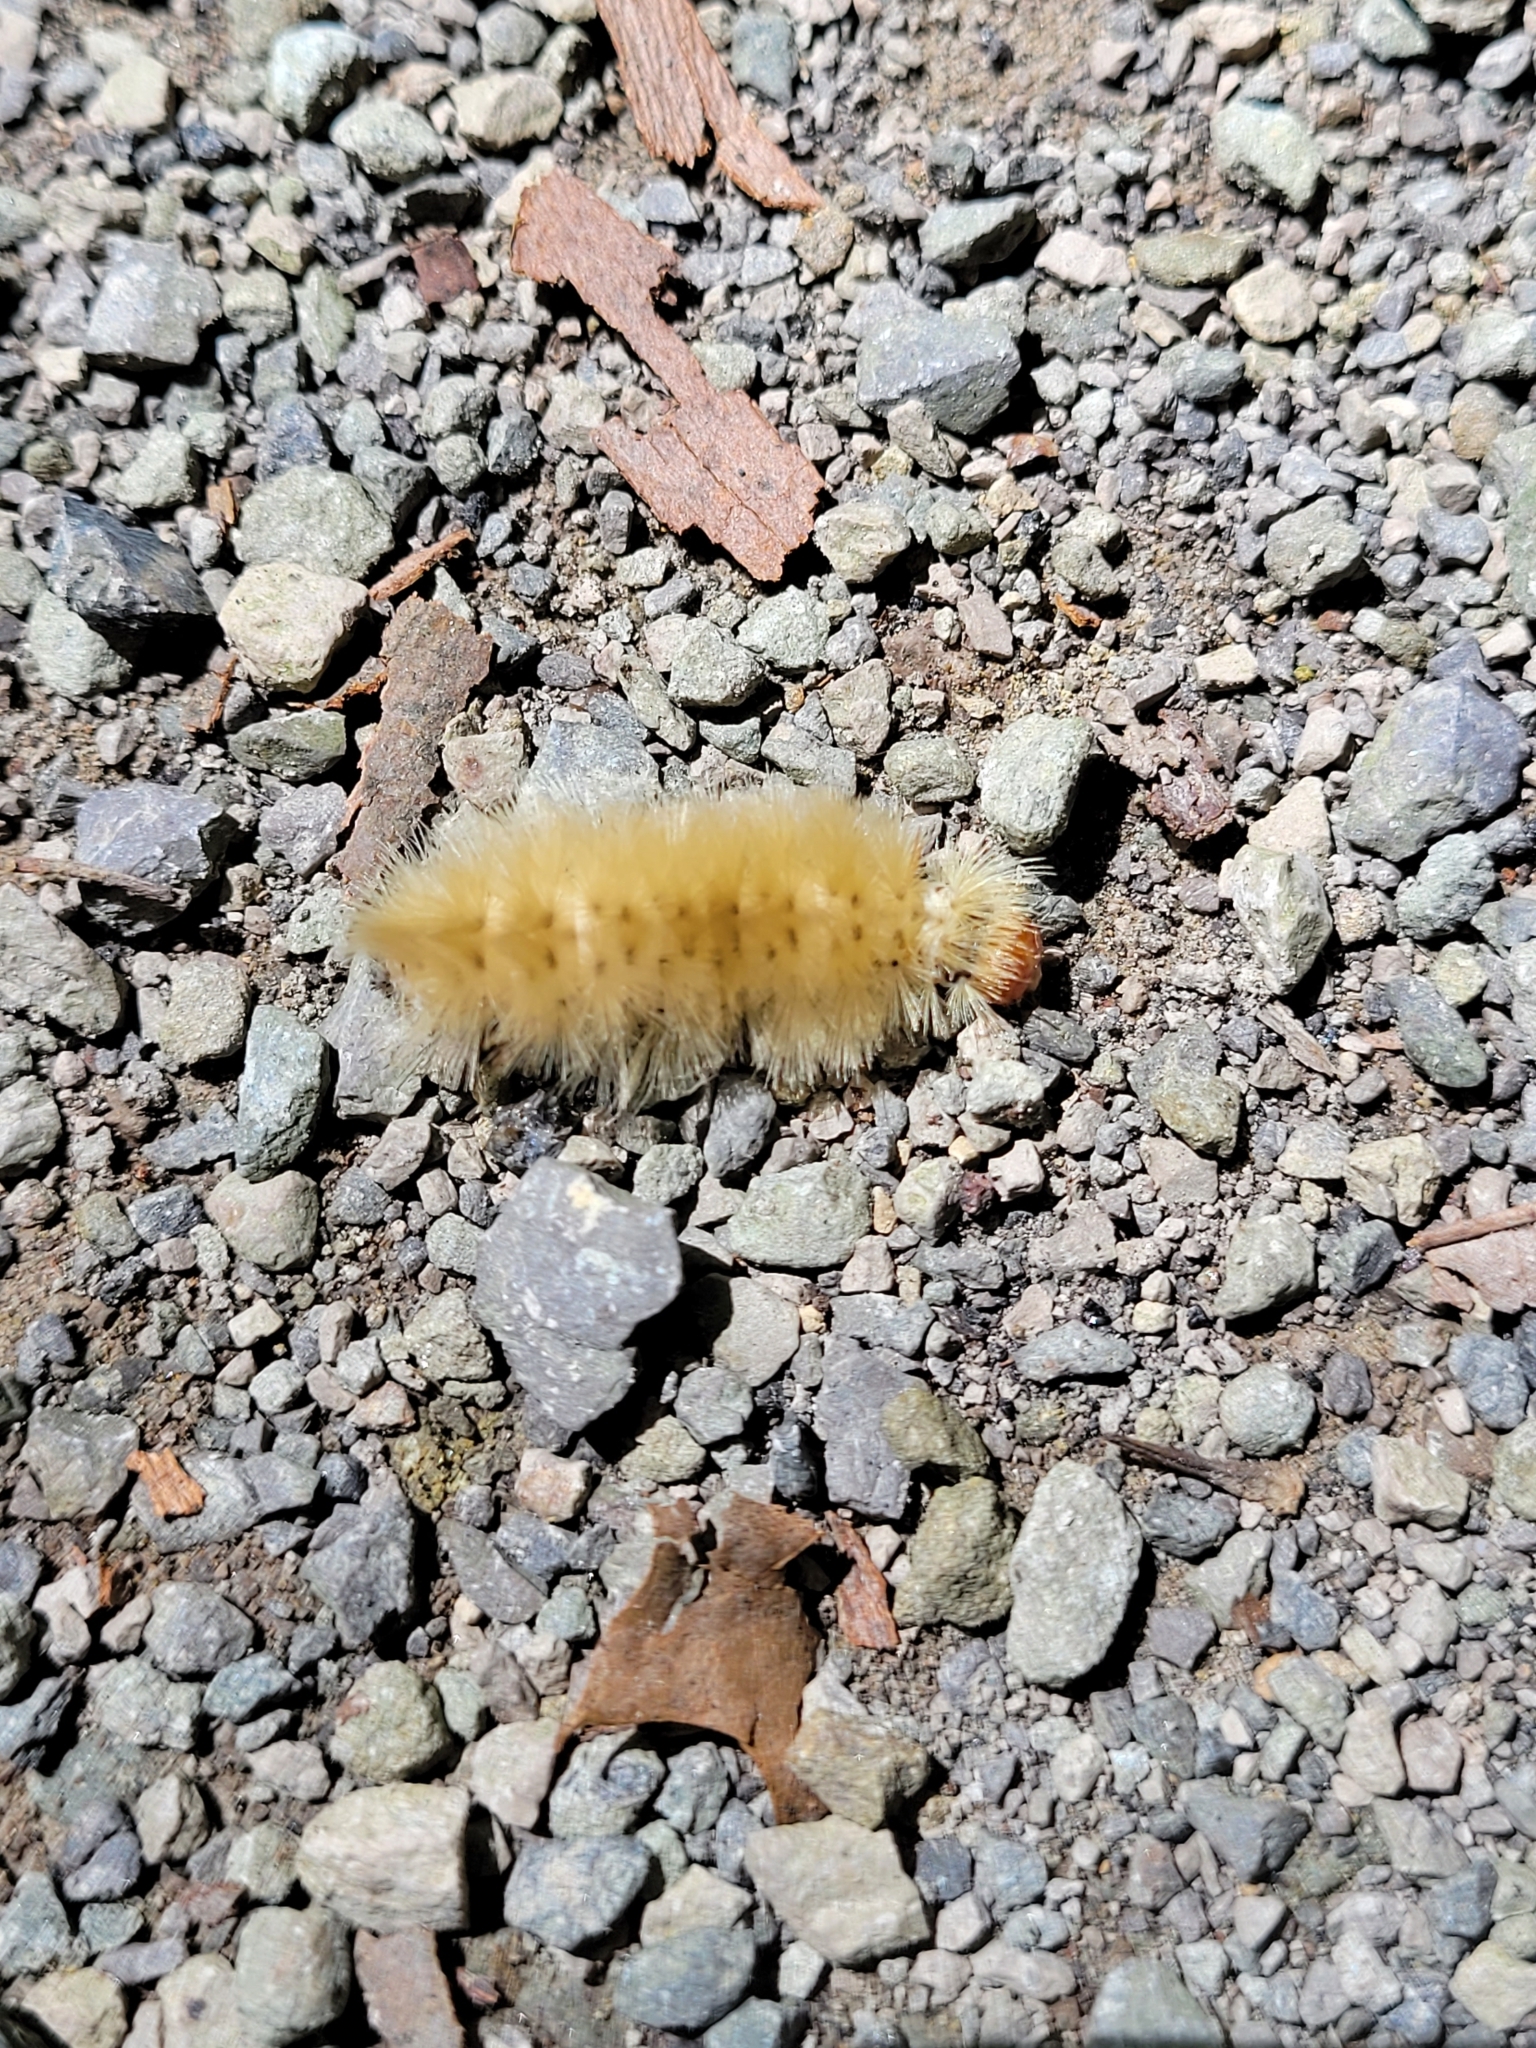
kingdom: Animalia
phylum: Arthropoda
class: Insecta
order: Lepidoptera
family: Erebidae
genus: Halysidota
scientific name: Halysidota harrisii
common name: Sycamore tussock moth
